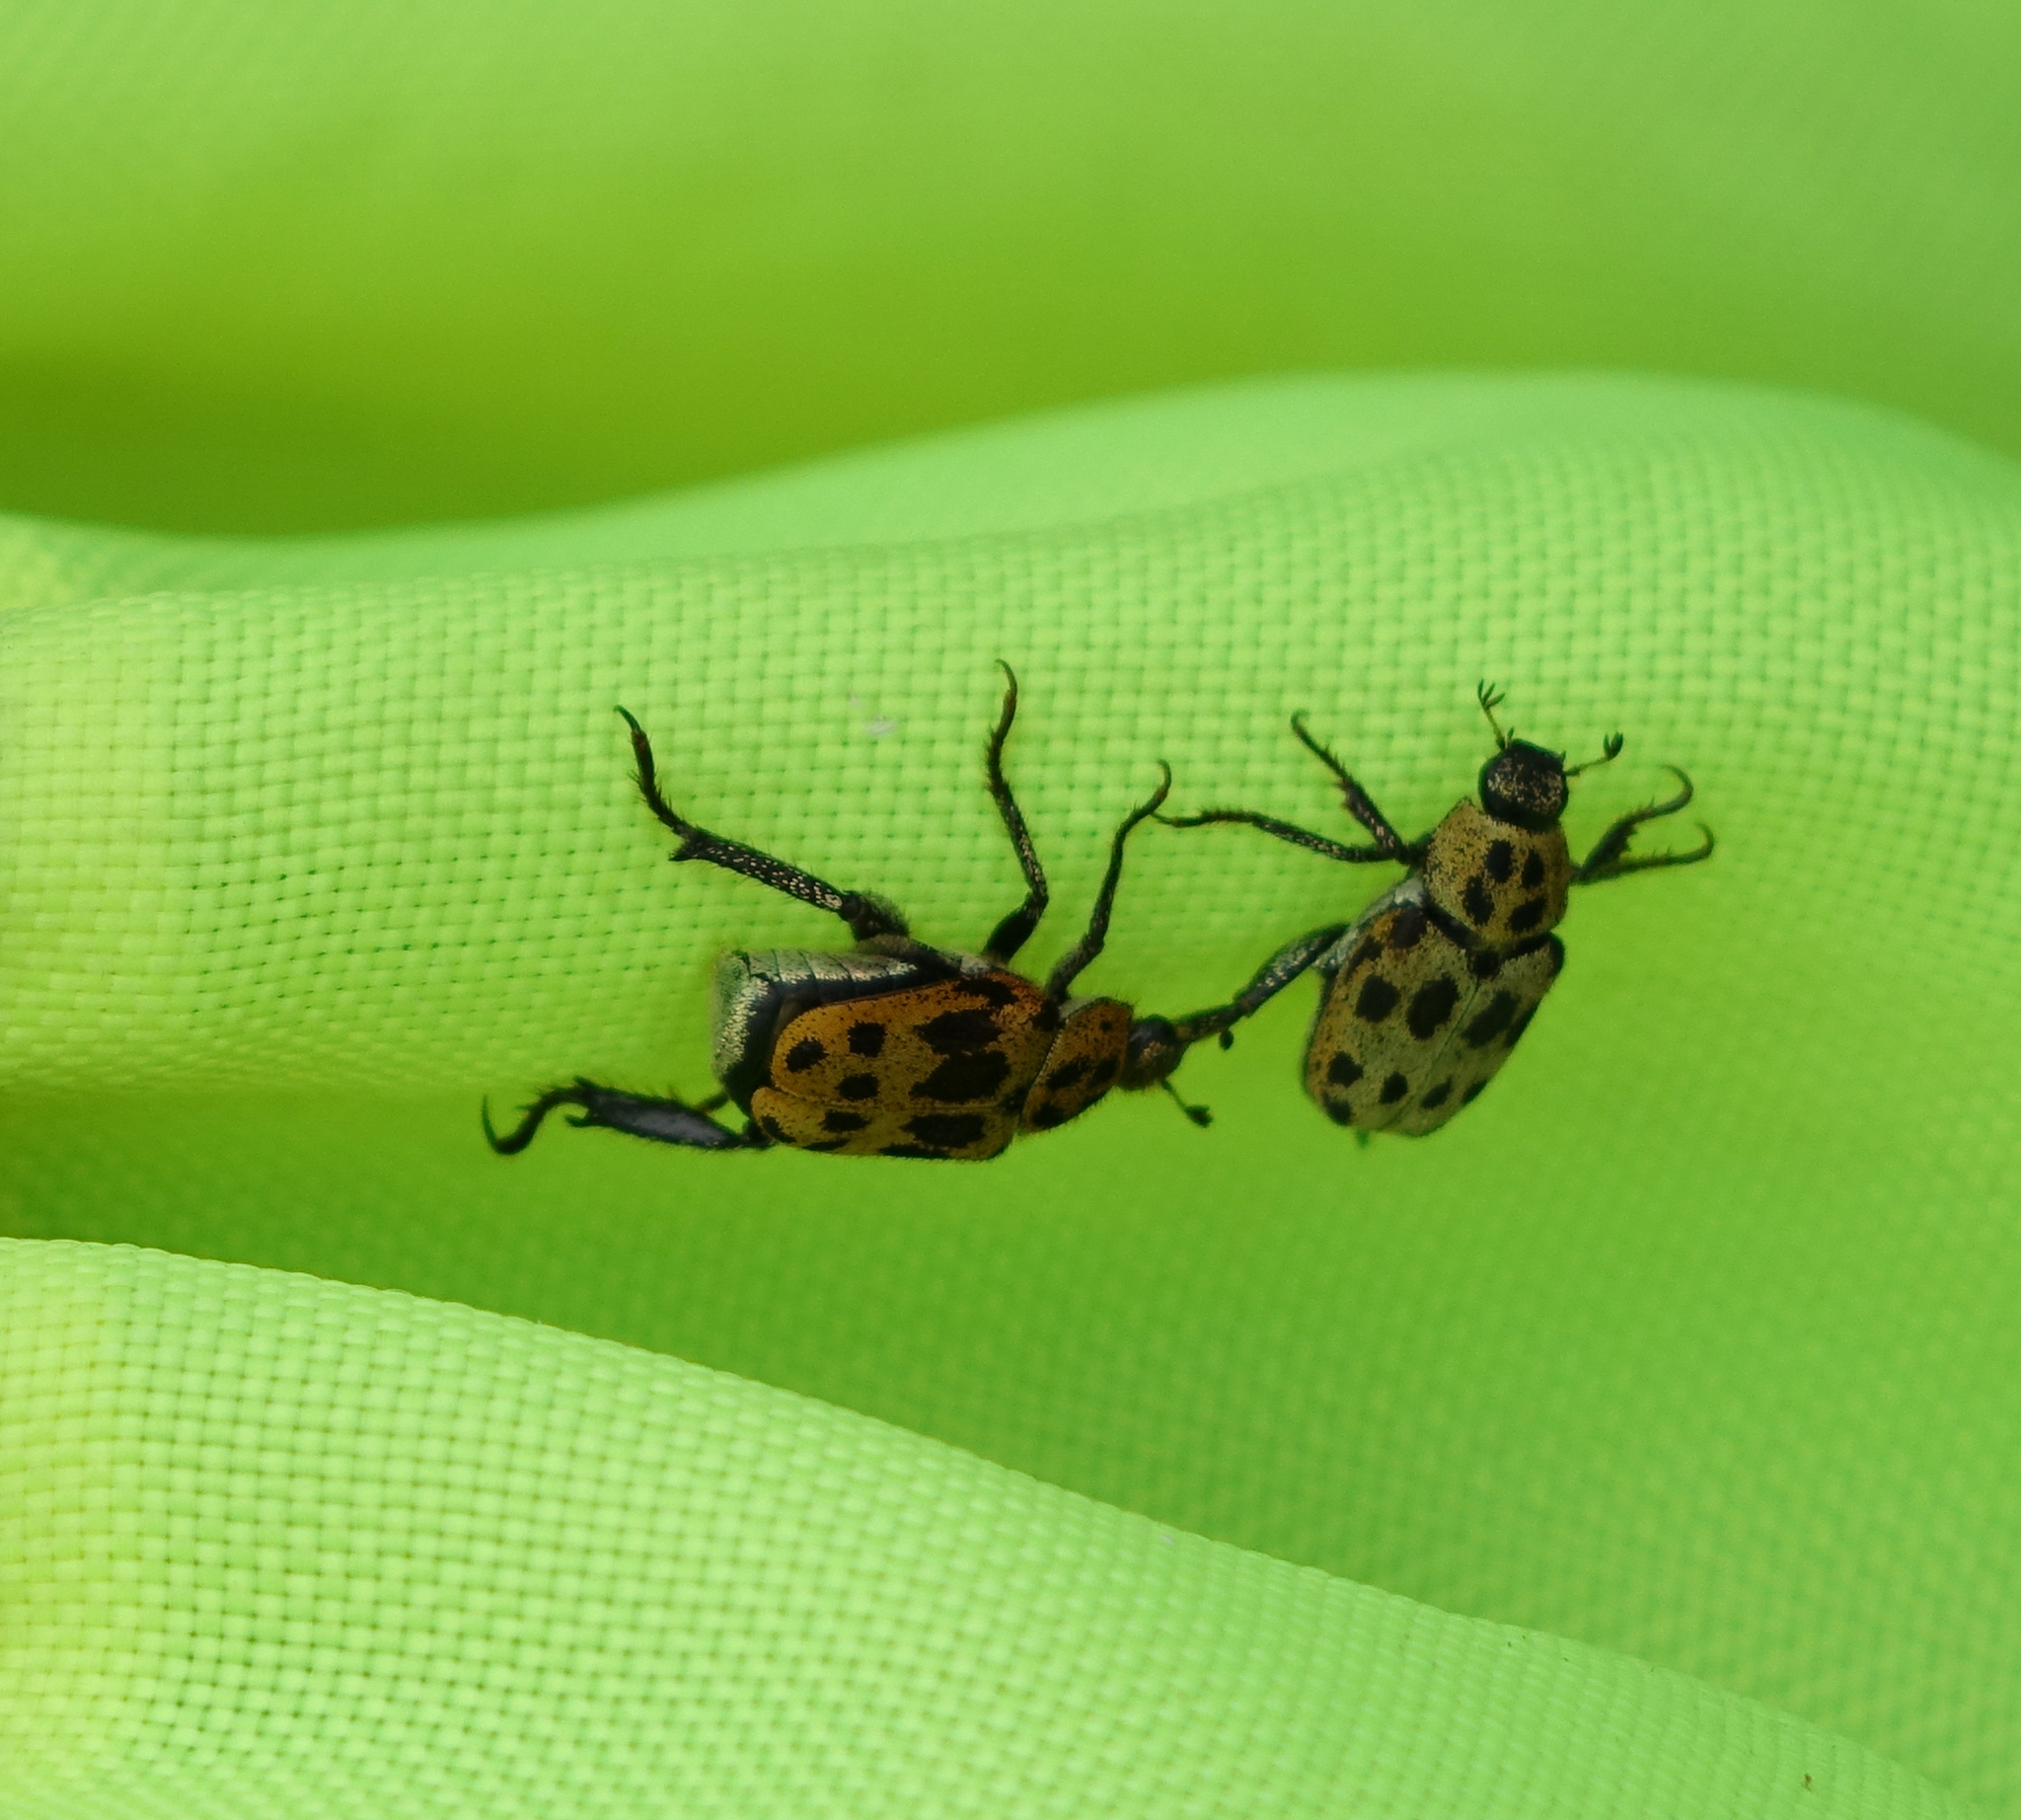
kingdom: Animalia
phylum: Arthropoda
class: Insecta
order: Coleoptera
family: Scarabaeidae
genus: Hoplia
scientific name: Hoplia aureola
